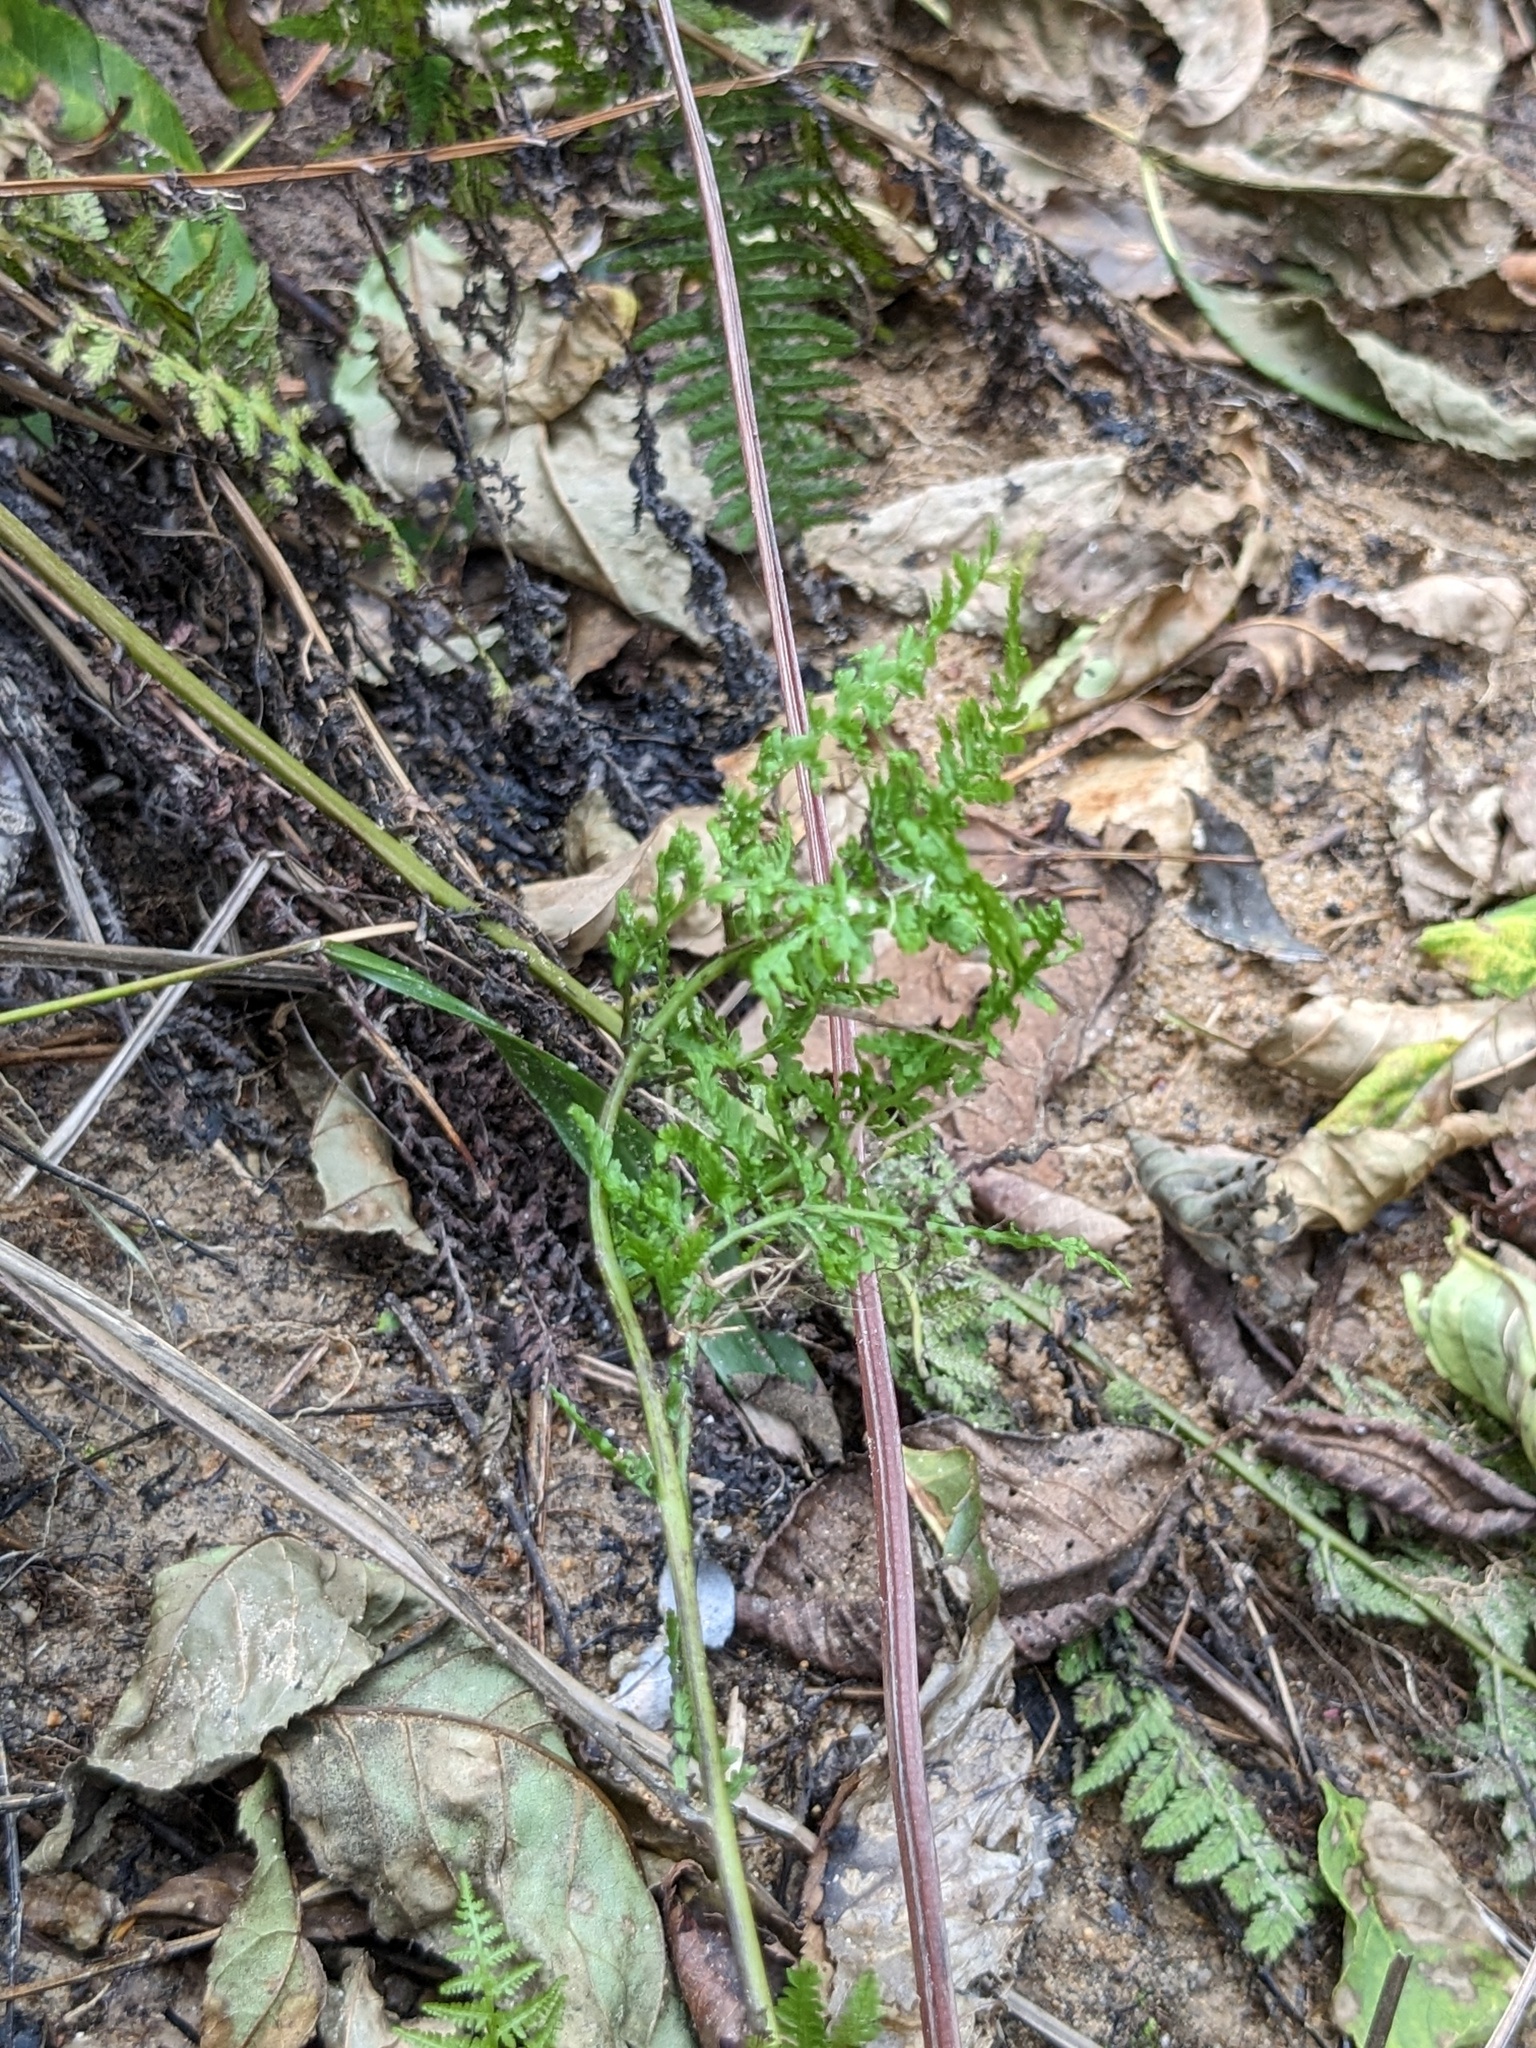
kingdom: Plantae
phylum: Tracheophyta
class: Polypodiopsida
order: Polypodiales
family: Athyriaceae
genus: Athyrium
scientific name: Athyrium filix-femina
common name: Lady fern
